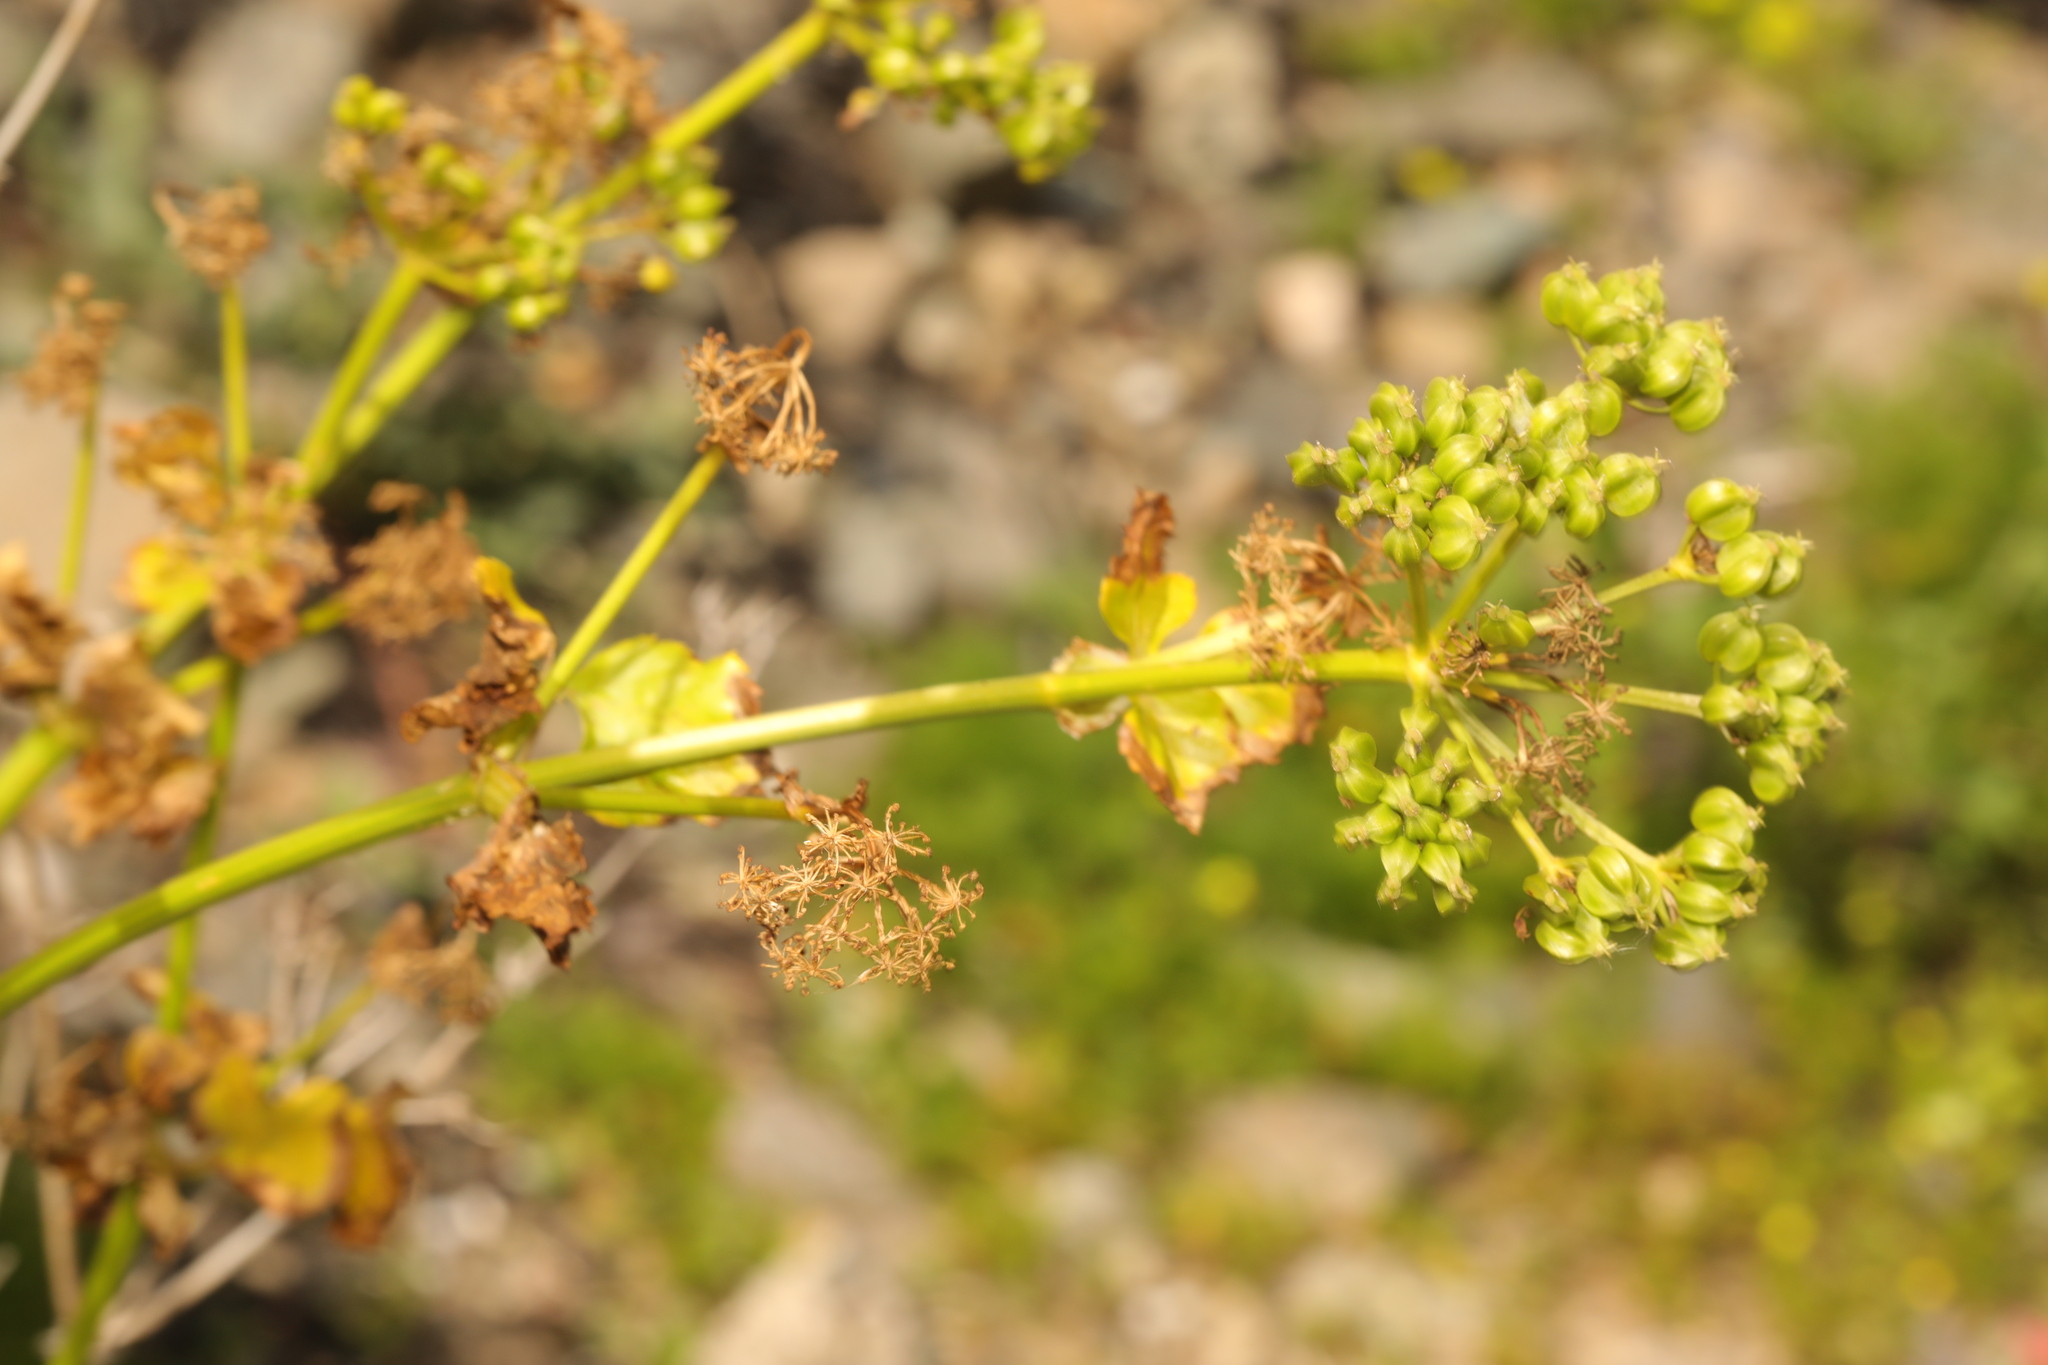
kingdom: Plantae
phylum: Tracheophyta
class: Magnoliopsida
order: Apiales
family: Apiaceae
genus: Smyrnium
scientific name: Smyrnium olusatrum
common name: Alexanders
